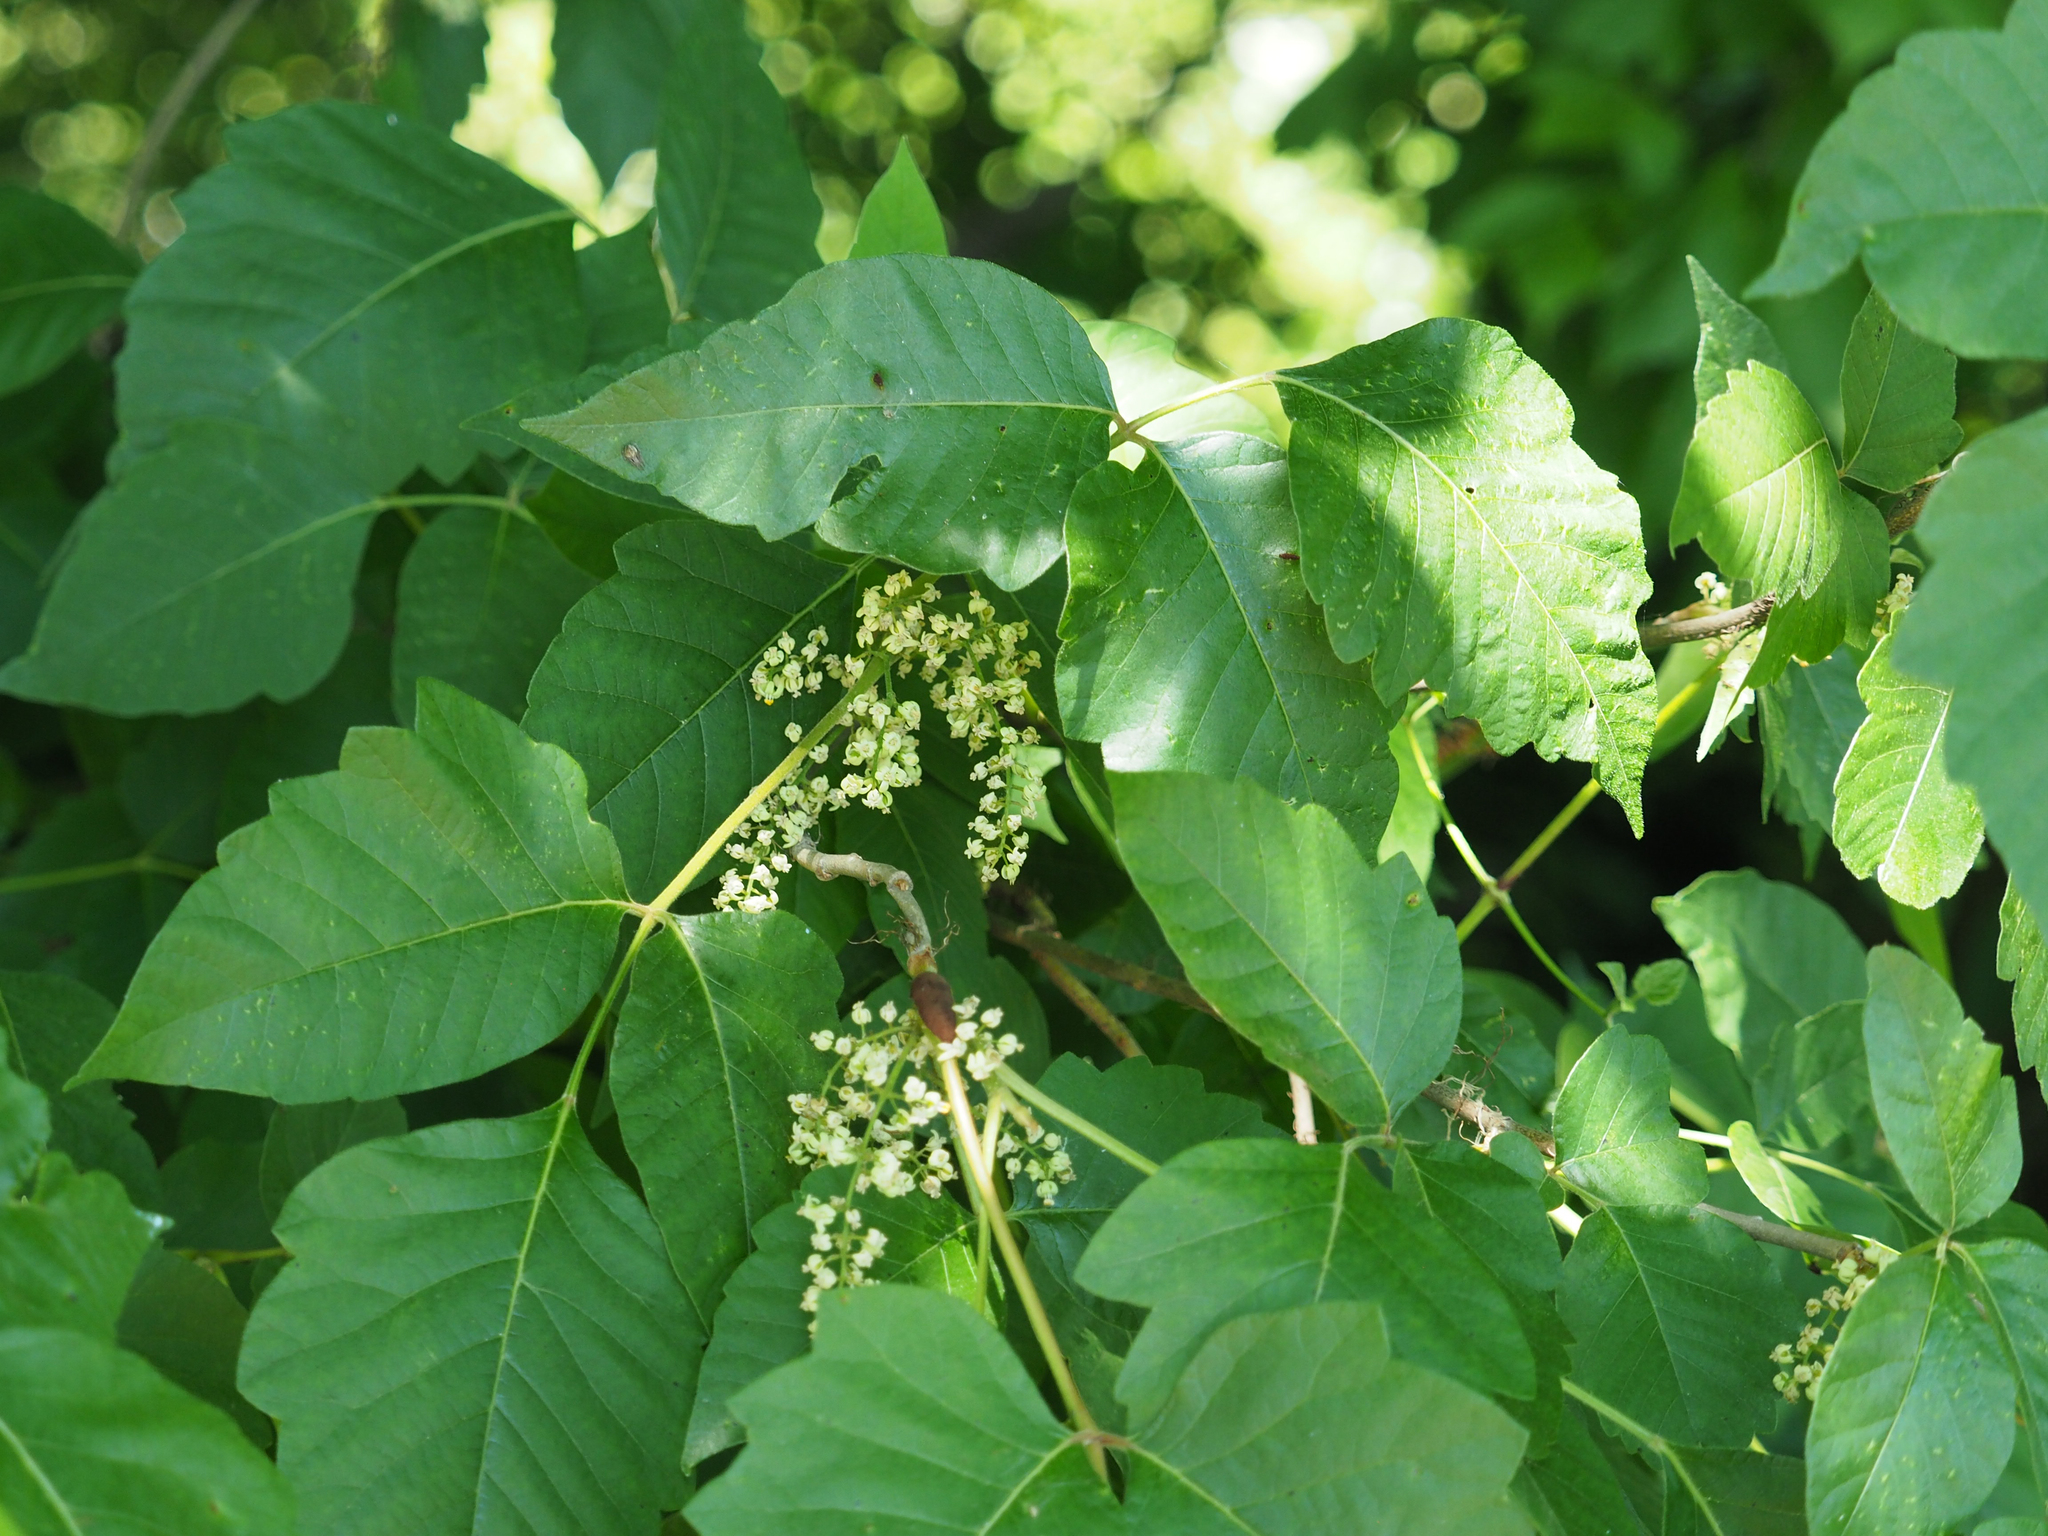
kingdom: Plantae
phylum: Tracheophyta
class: Magnoliopsida
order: Sapindales
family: Anacardiaceae
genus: Toxicodendron
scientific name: Toxicodendron radicans
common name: Poison ivy
